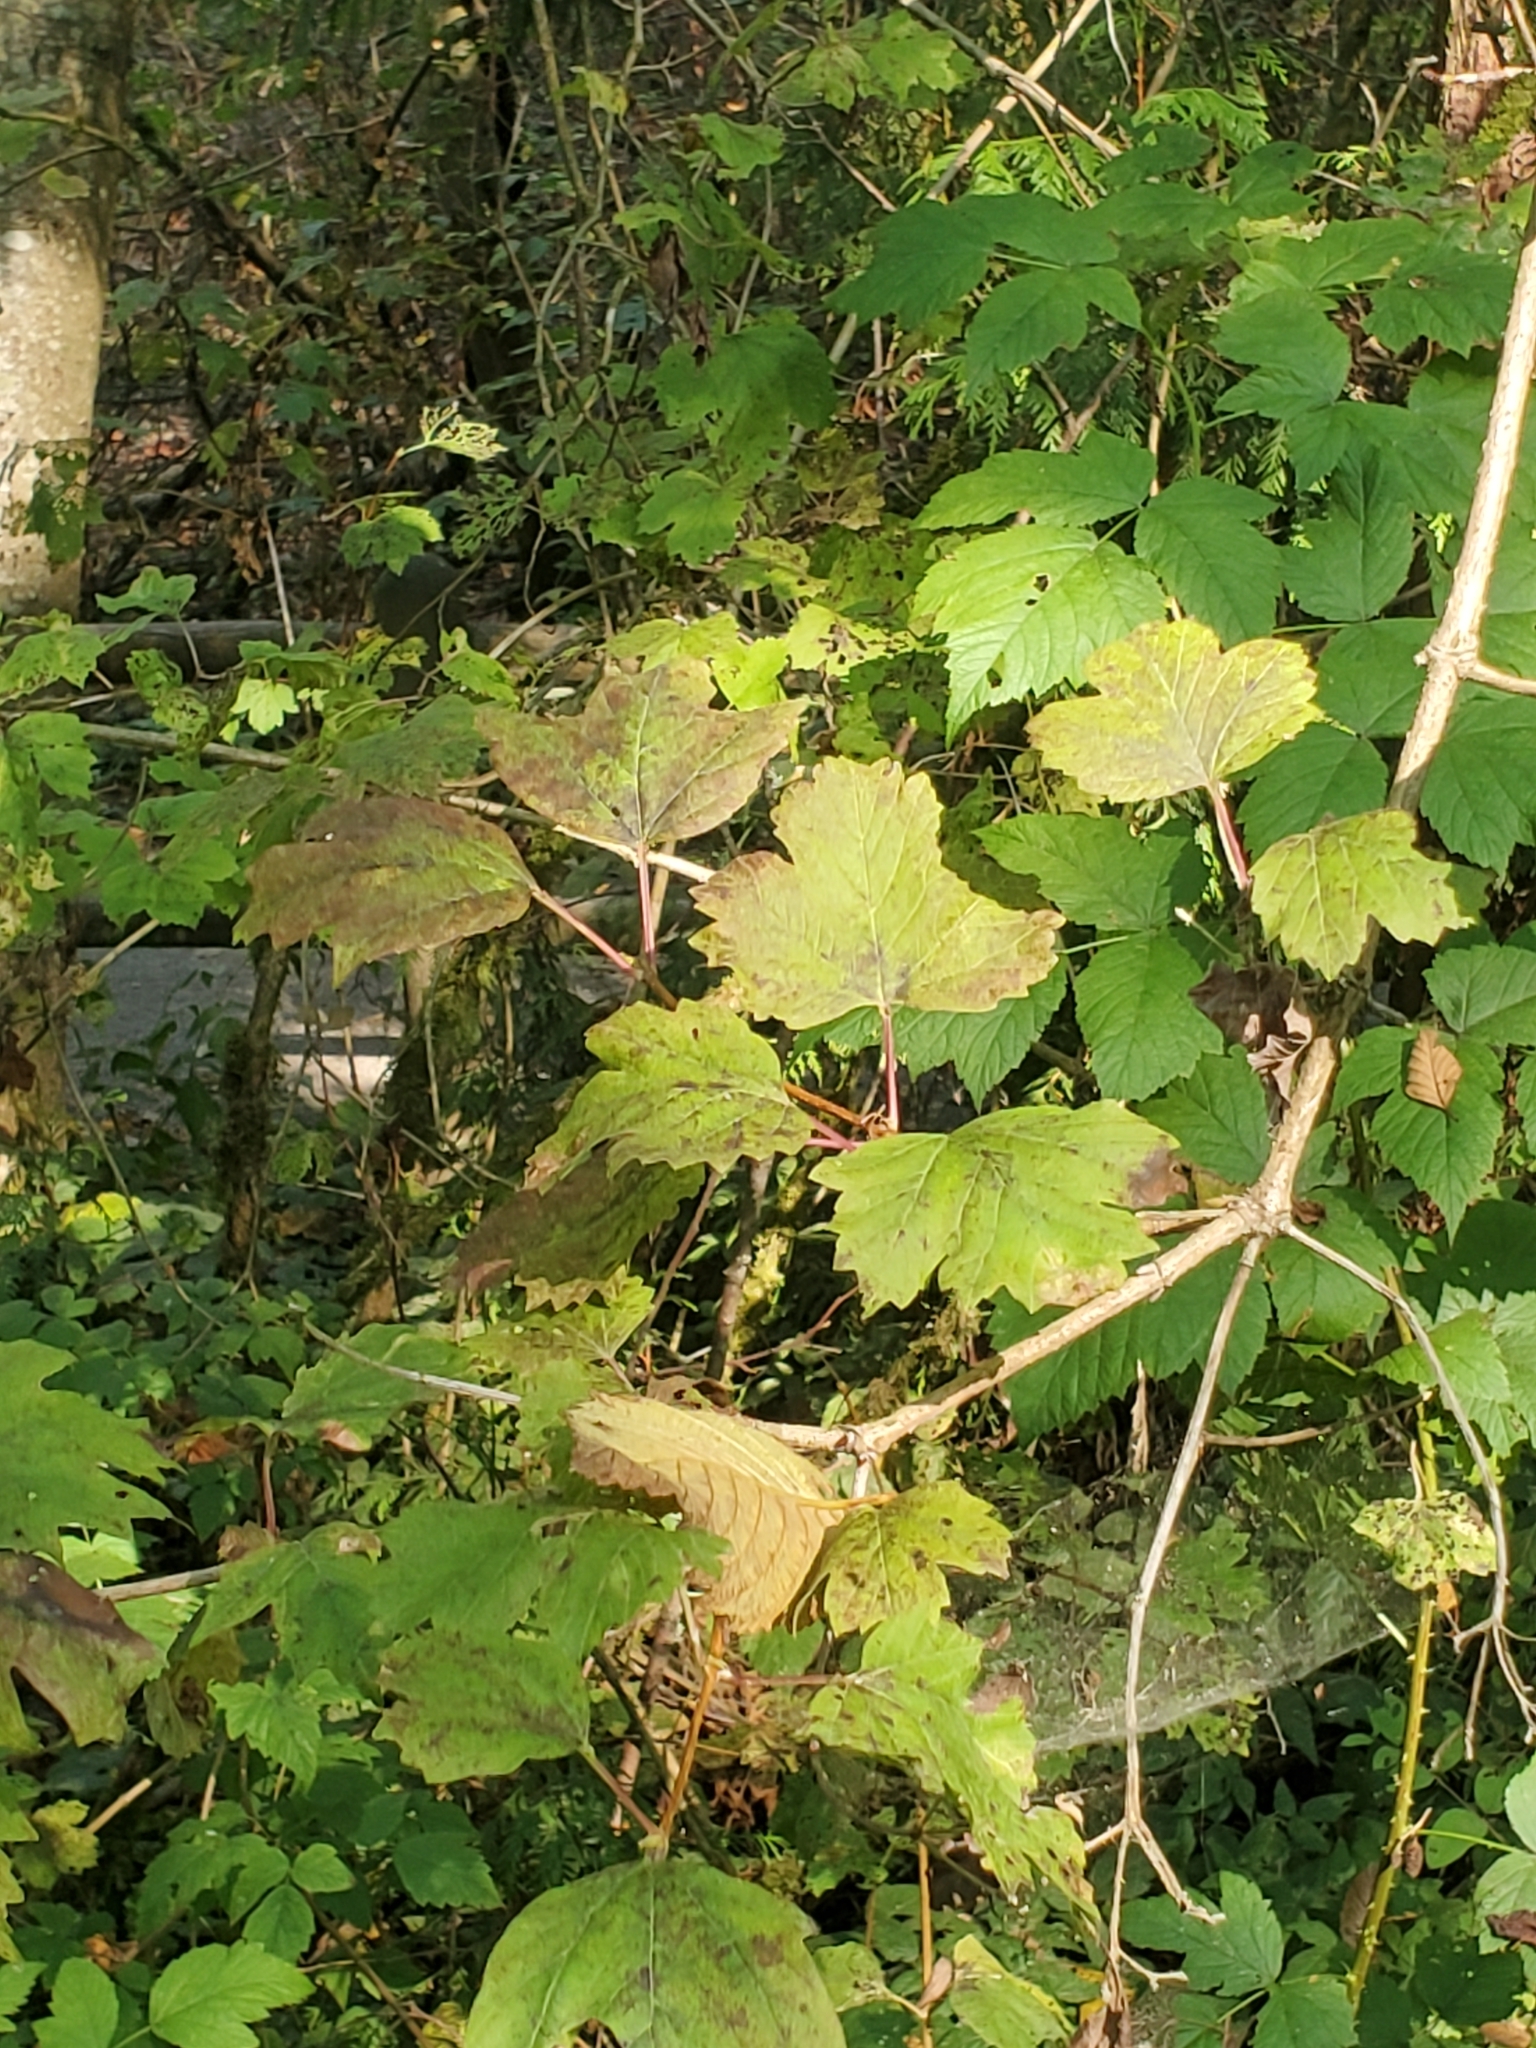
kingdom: Plantae
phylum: Tracheophyta
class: Magnoliopsida
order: Dipsacales
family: Viburnaceae
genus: Viburnum
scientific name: Viburnum opulus
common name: Guelder-rose
